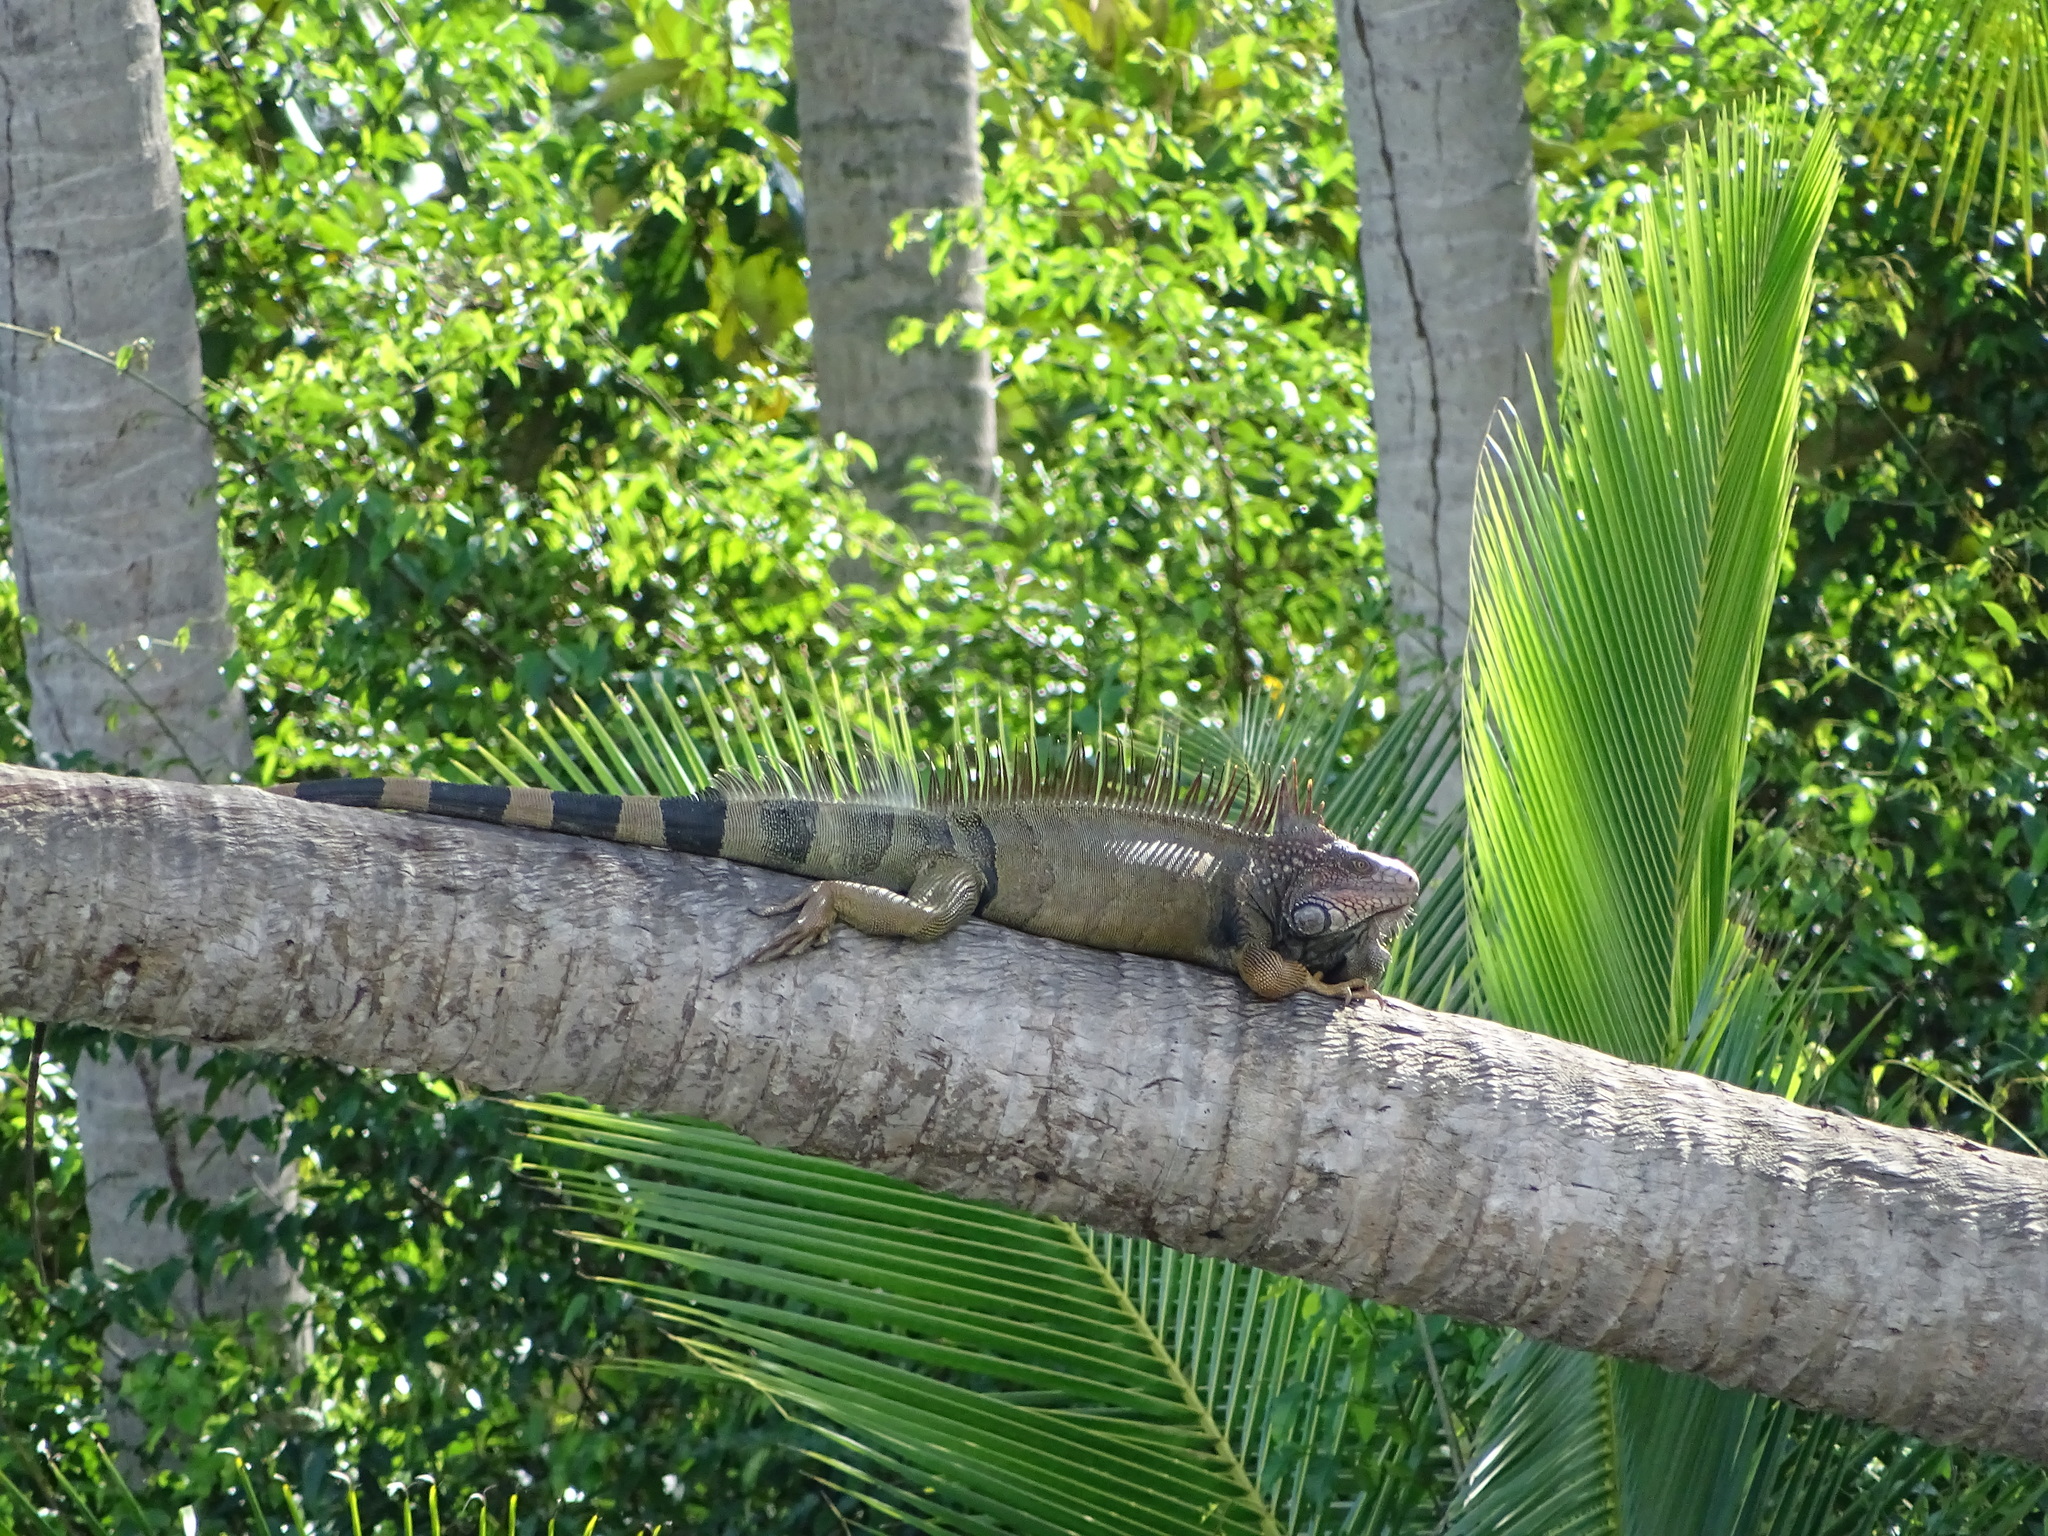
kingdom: Animalia
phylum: Chordata
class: Squamata
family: Iguanidae
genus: Iguana
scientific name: Iguana iguana
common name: Green iguana
